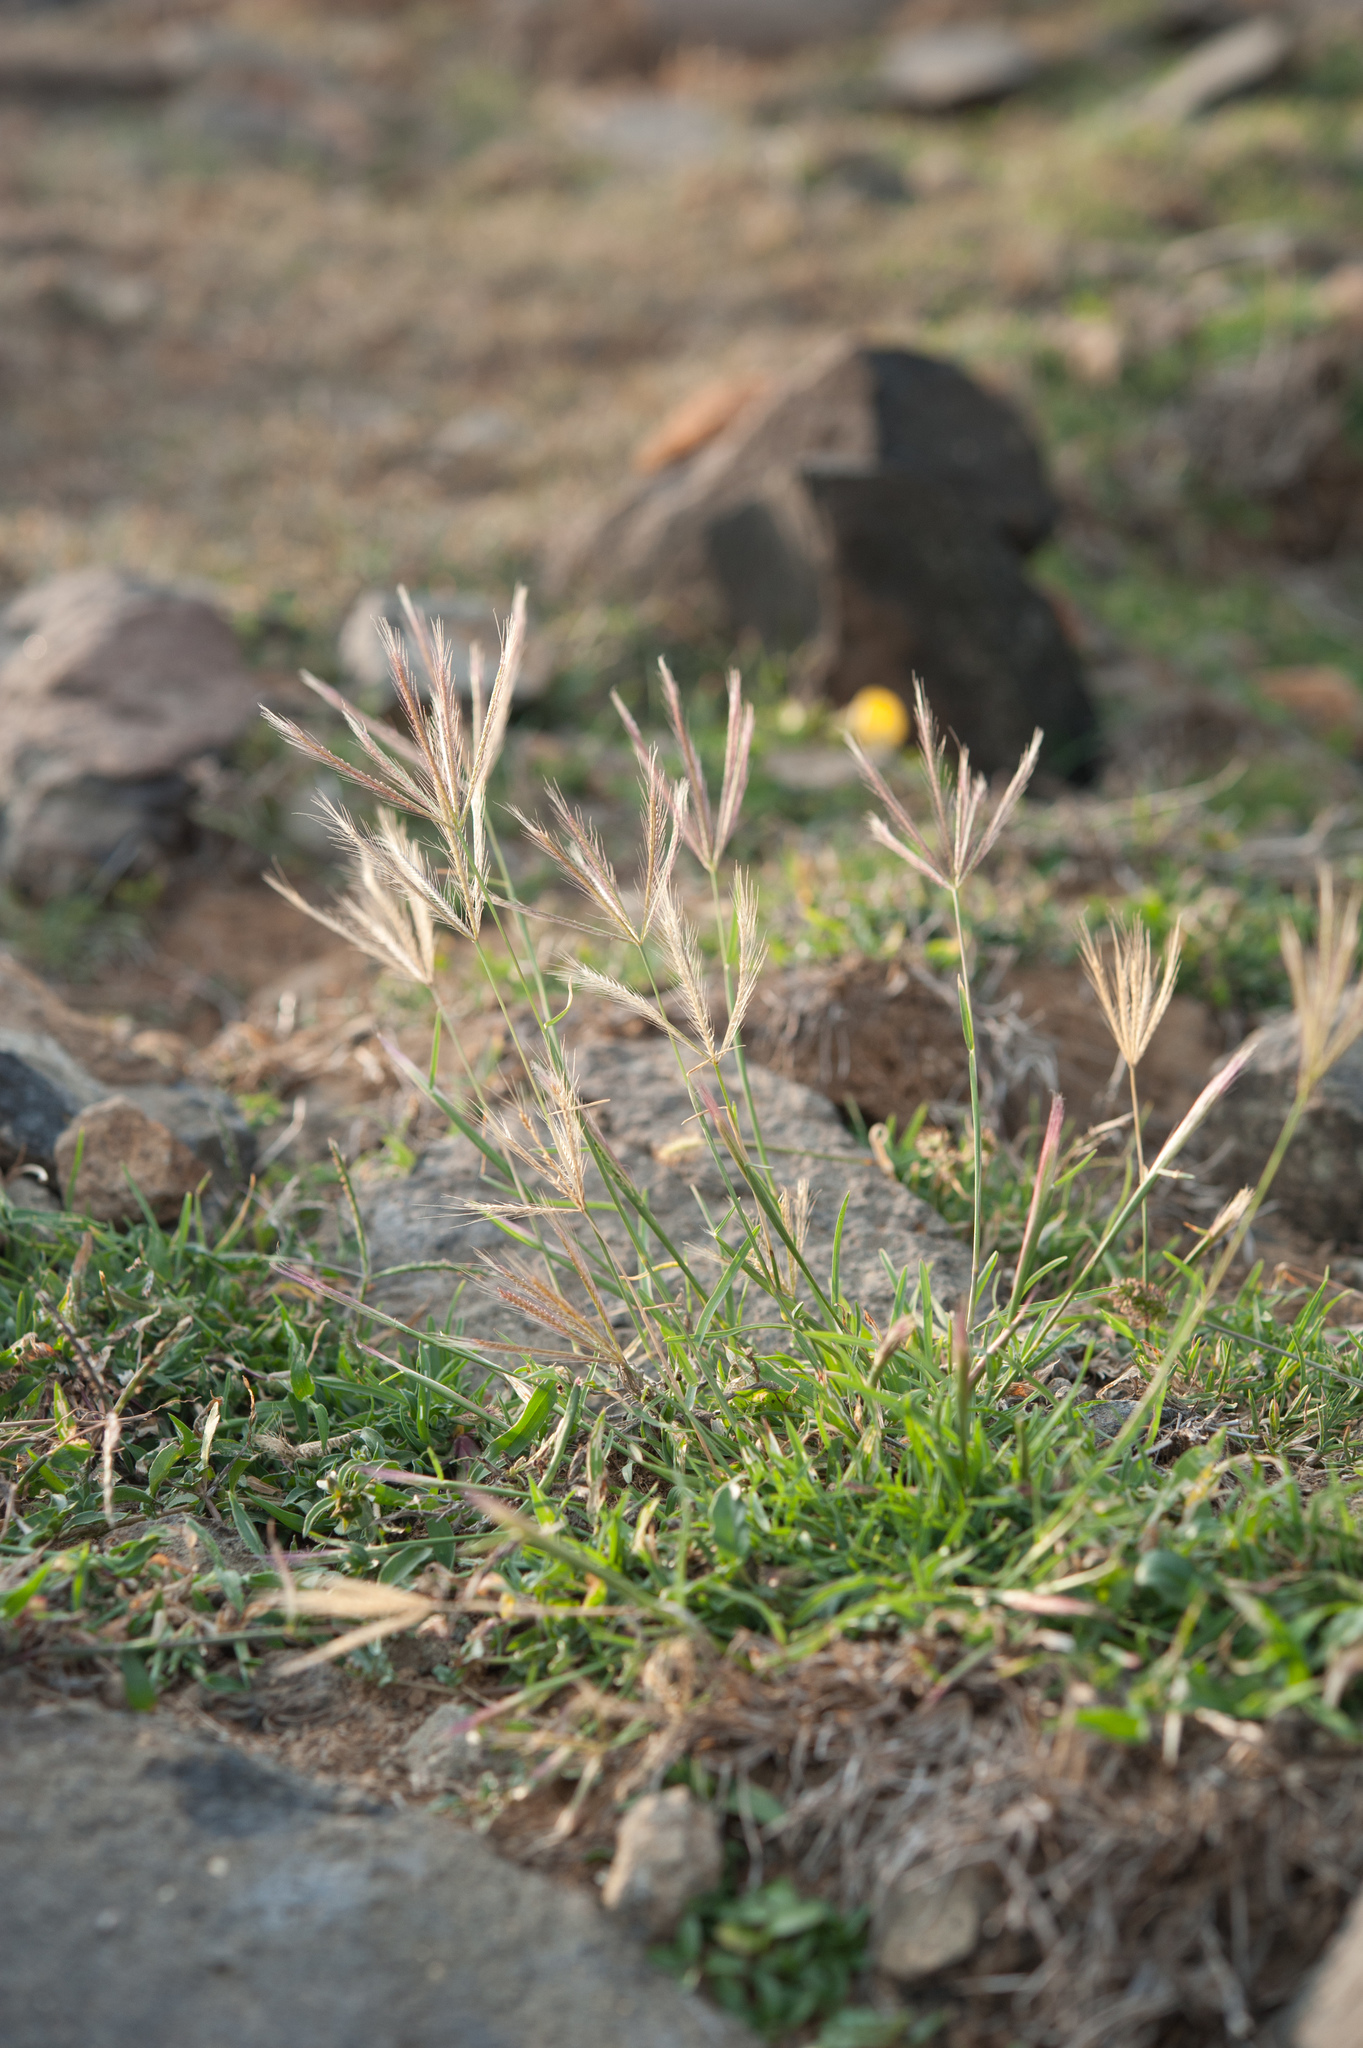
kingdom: Plantae
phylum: Tracheophyta
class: Liliopsida
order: Poales
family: Poaceae
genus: Chloris
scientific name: Chloris divaricata
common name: Spreading windmill grass
